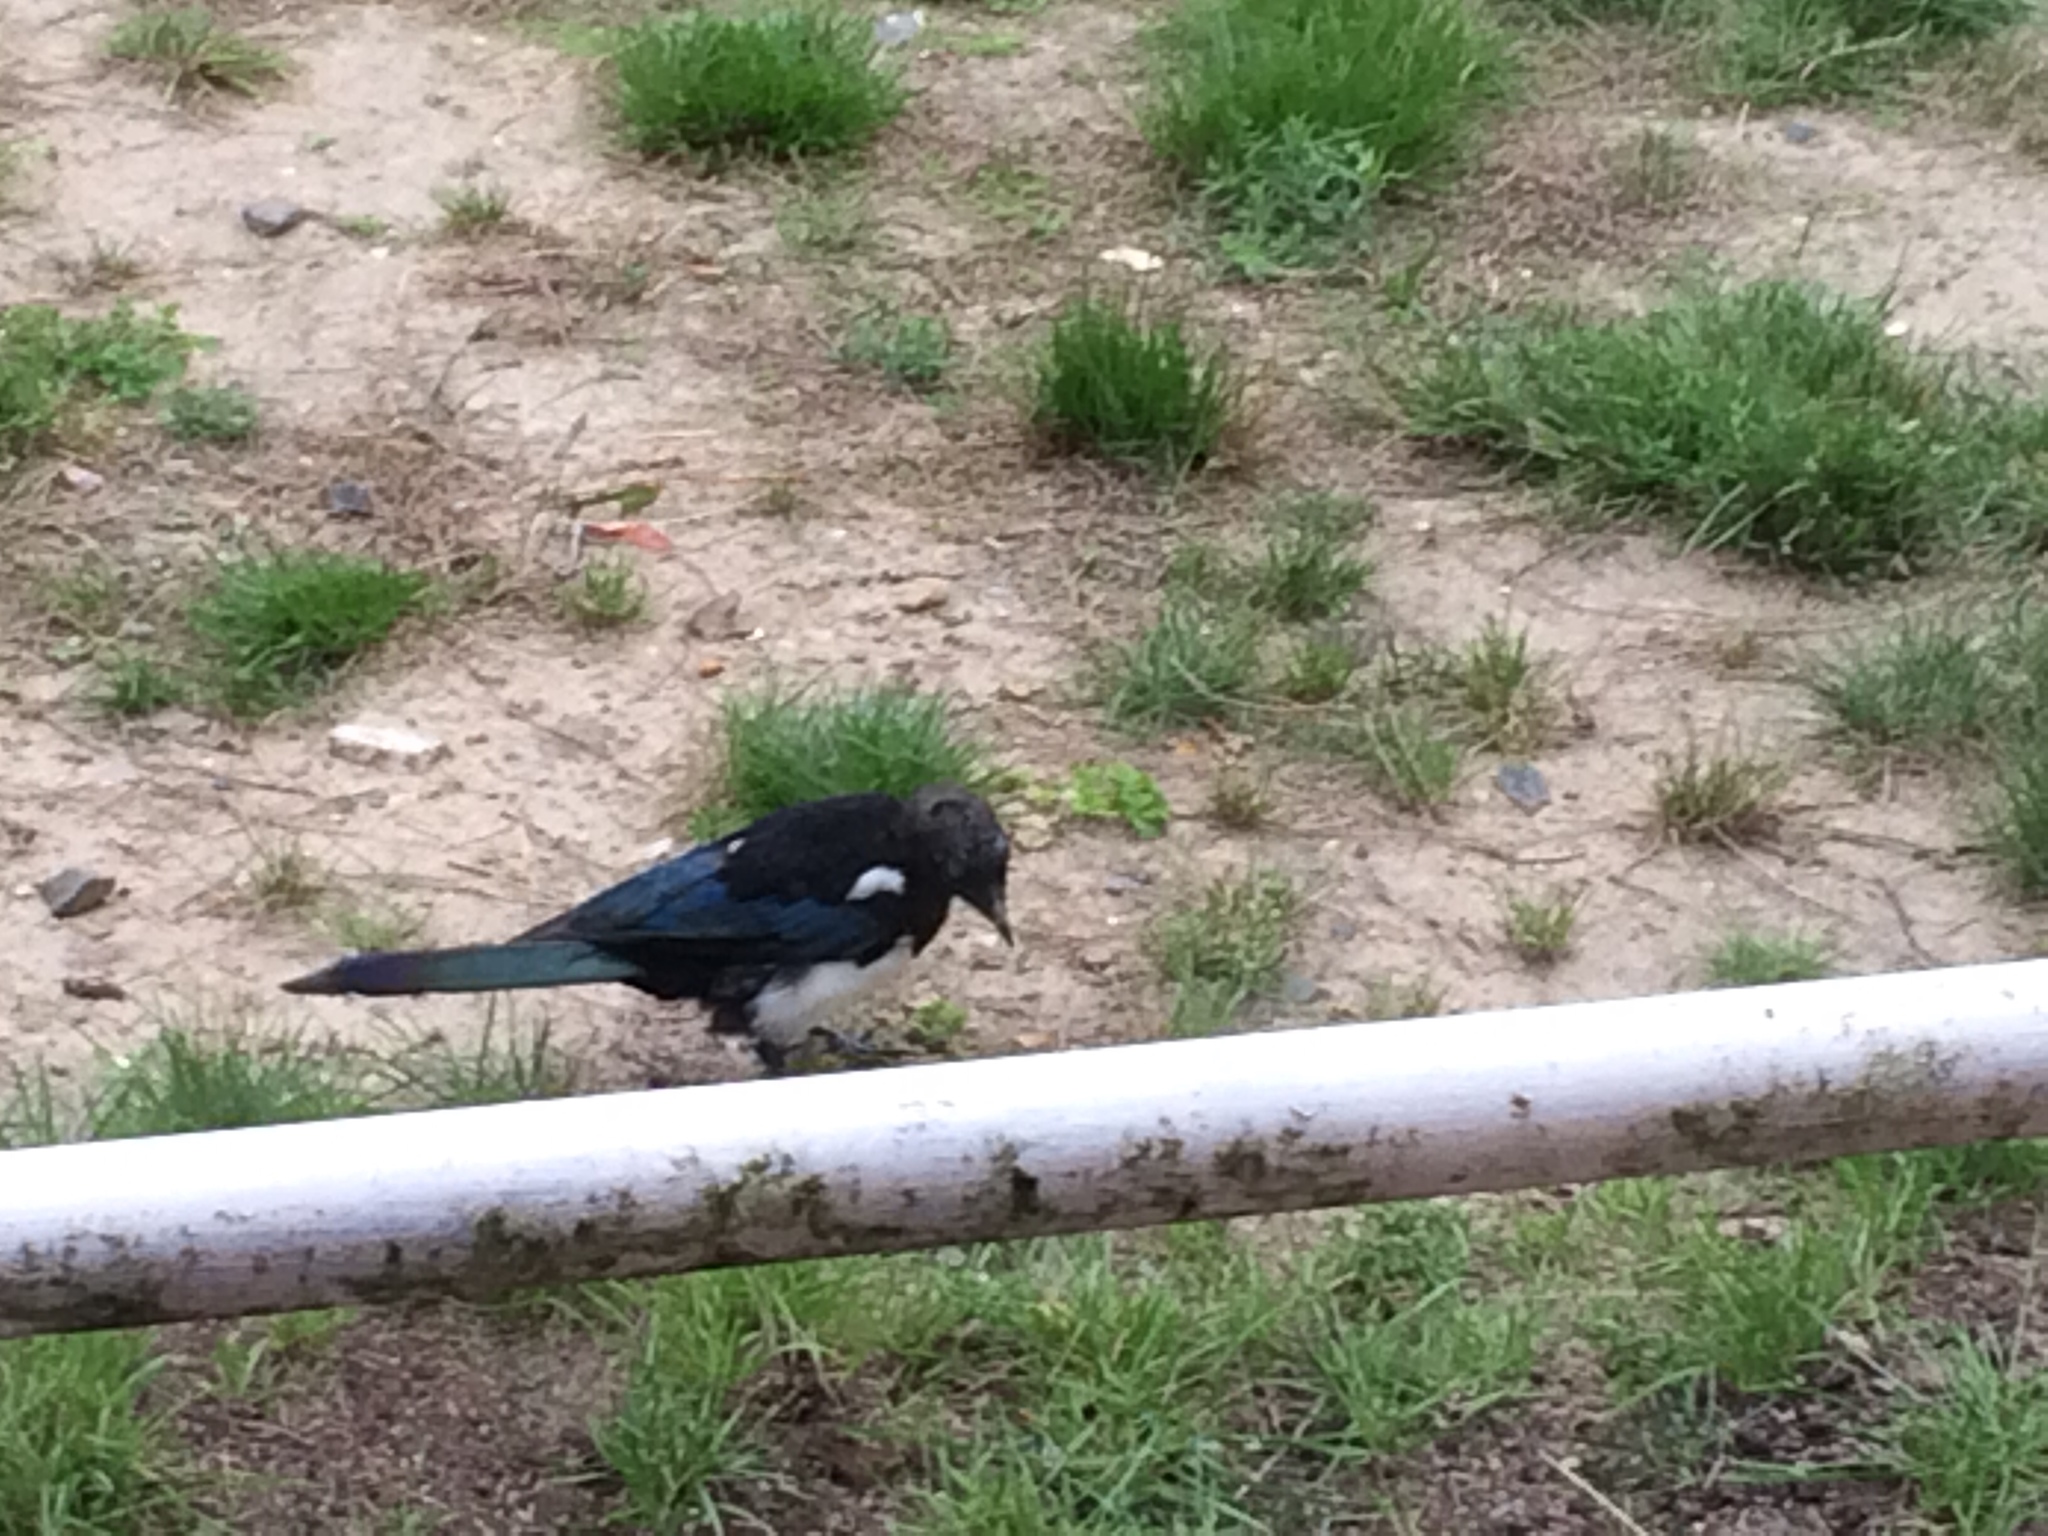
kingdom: Animalia
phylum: Chordata
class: Aves
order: Passeriformes
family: Corvidae
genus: Pica
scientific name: Pica pica
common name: Eurasian magpie
